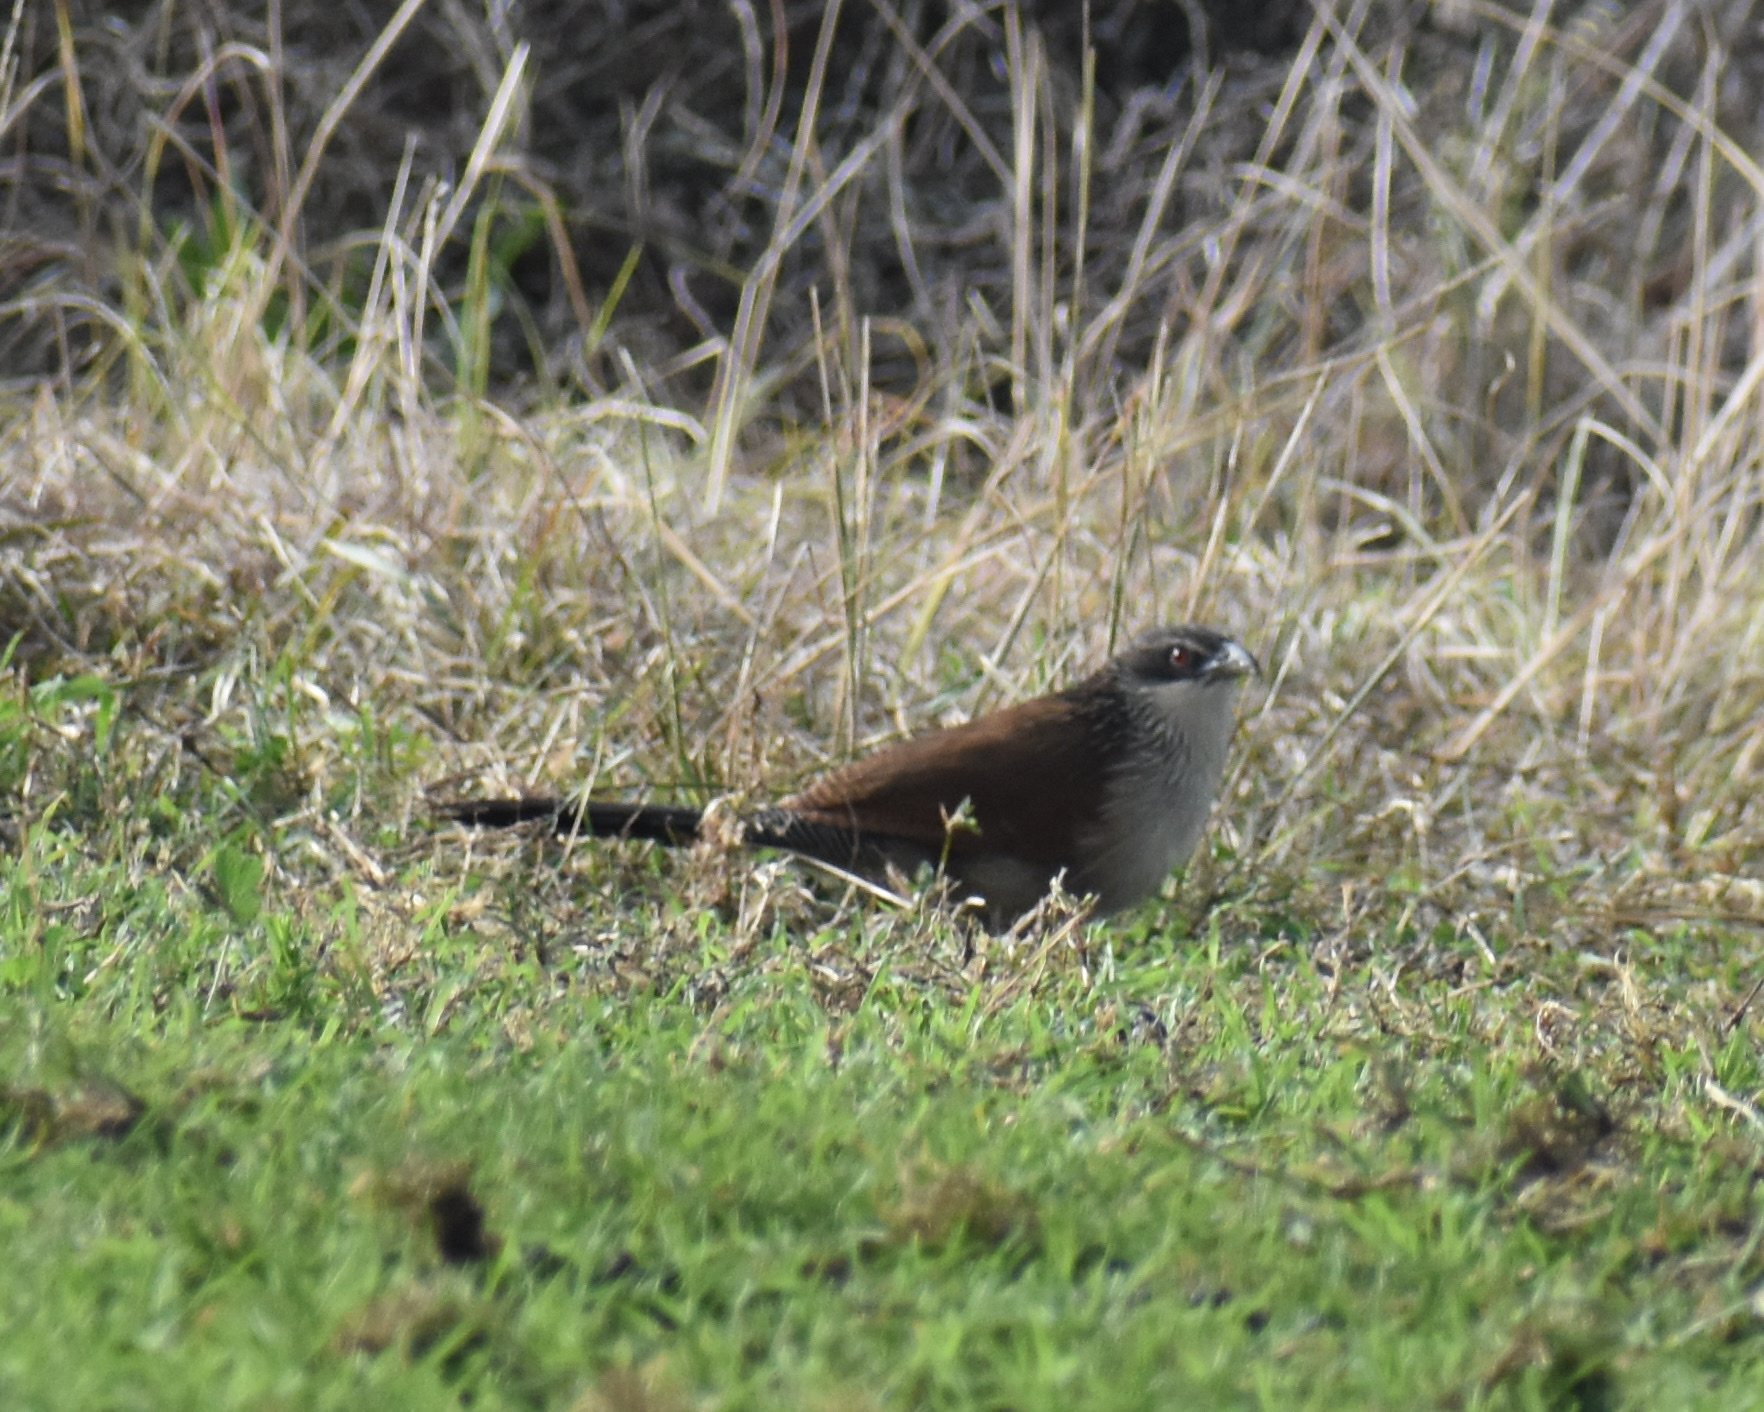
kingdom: Animalia
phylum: Chordata
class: Aves
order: Cuculiformes
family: Cuculidae
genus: Centropus
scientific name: Centropus superciliosus
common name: White-browed coucal
